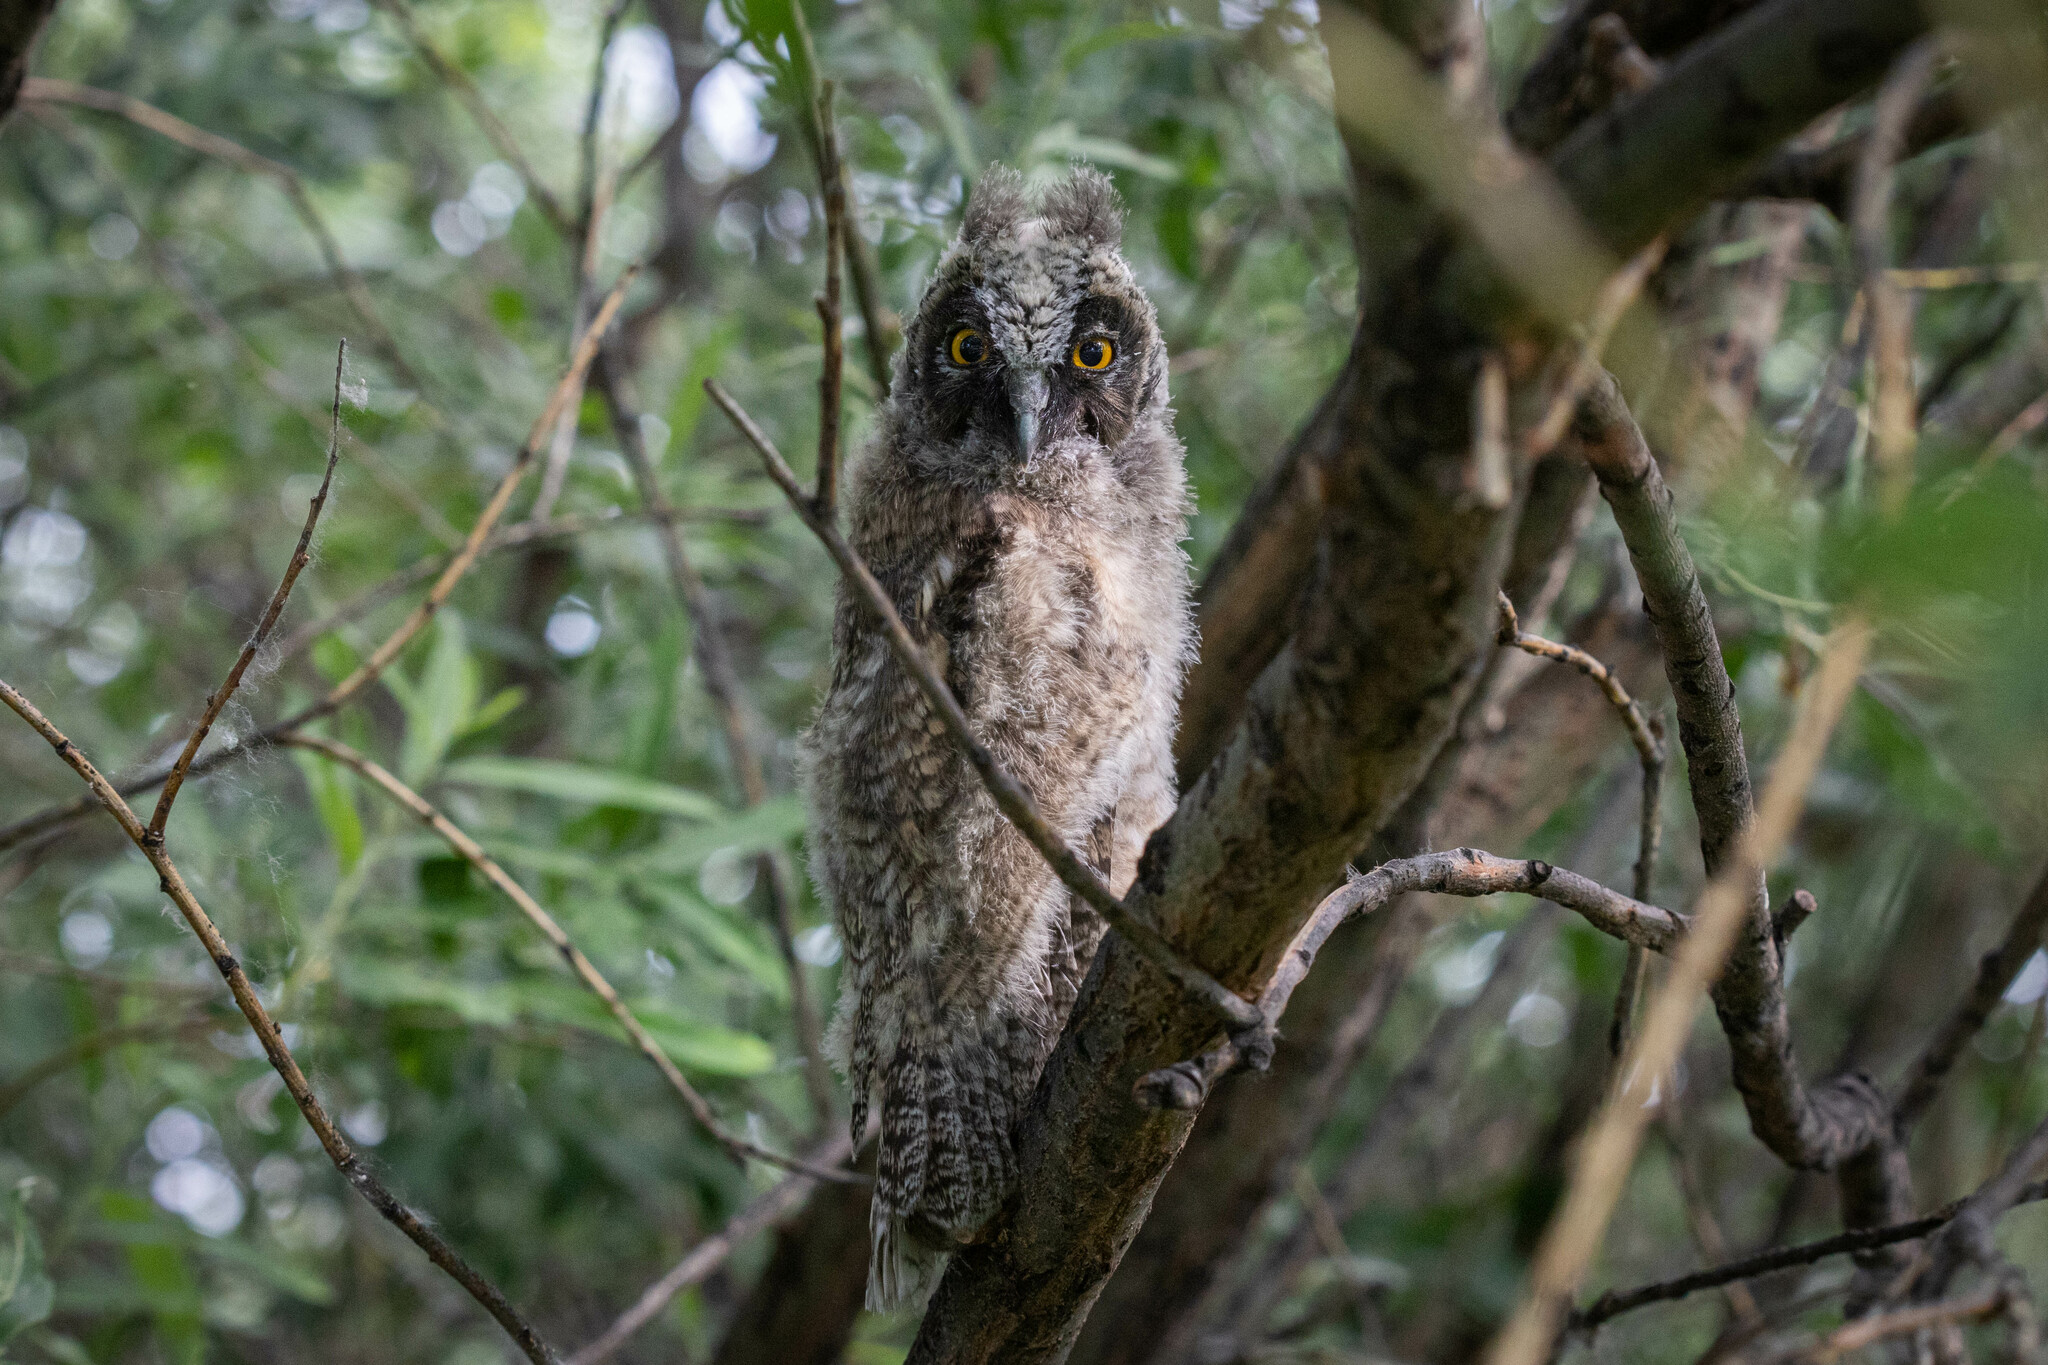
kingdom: Animalia
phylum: Chordata
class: Aves
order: Strigiformes
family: Strigidae
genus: Asio
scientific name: Asio otus
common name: Long-eared owl
